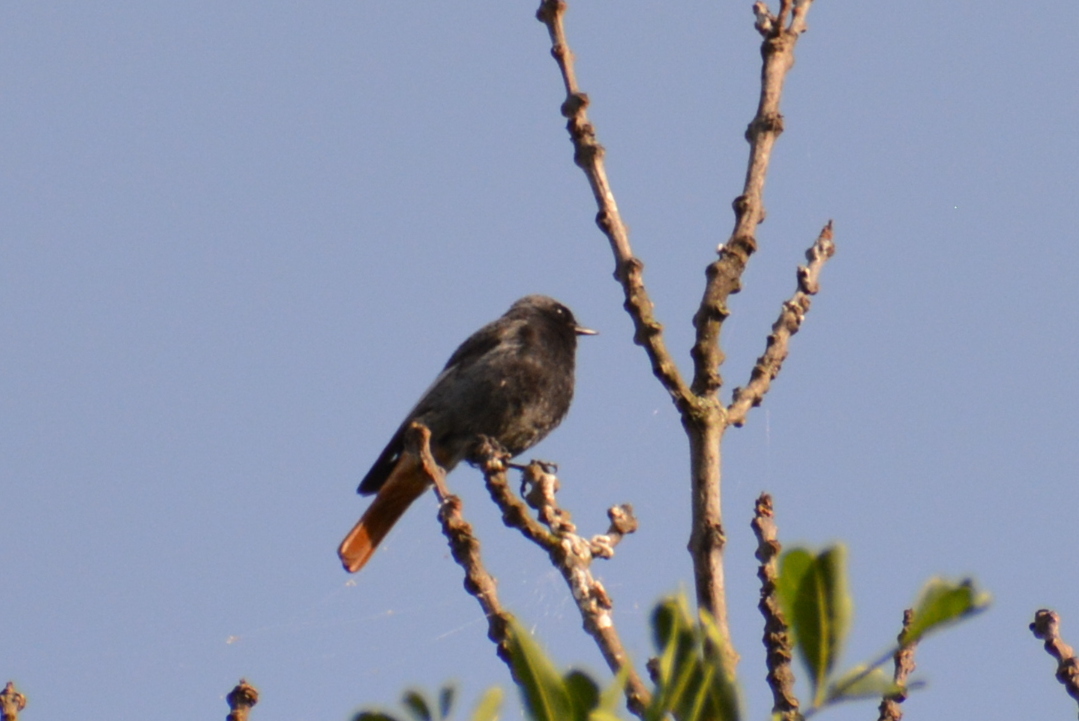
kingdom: Animalia
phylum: Chordata
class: Aves
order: Passeriformes
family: Muscicapidae
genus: Phoenicurus
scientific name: Phoenicurus ochruros
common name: Black redstart
